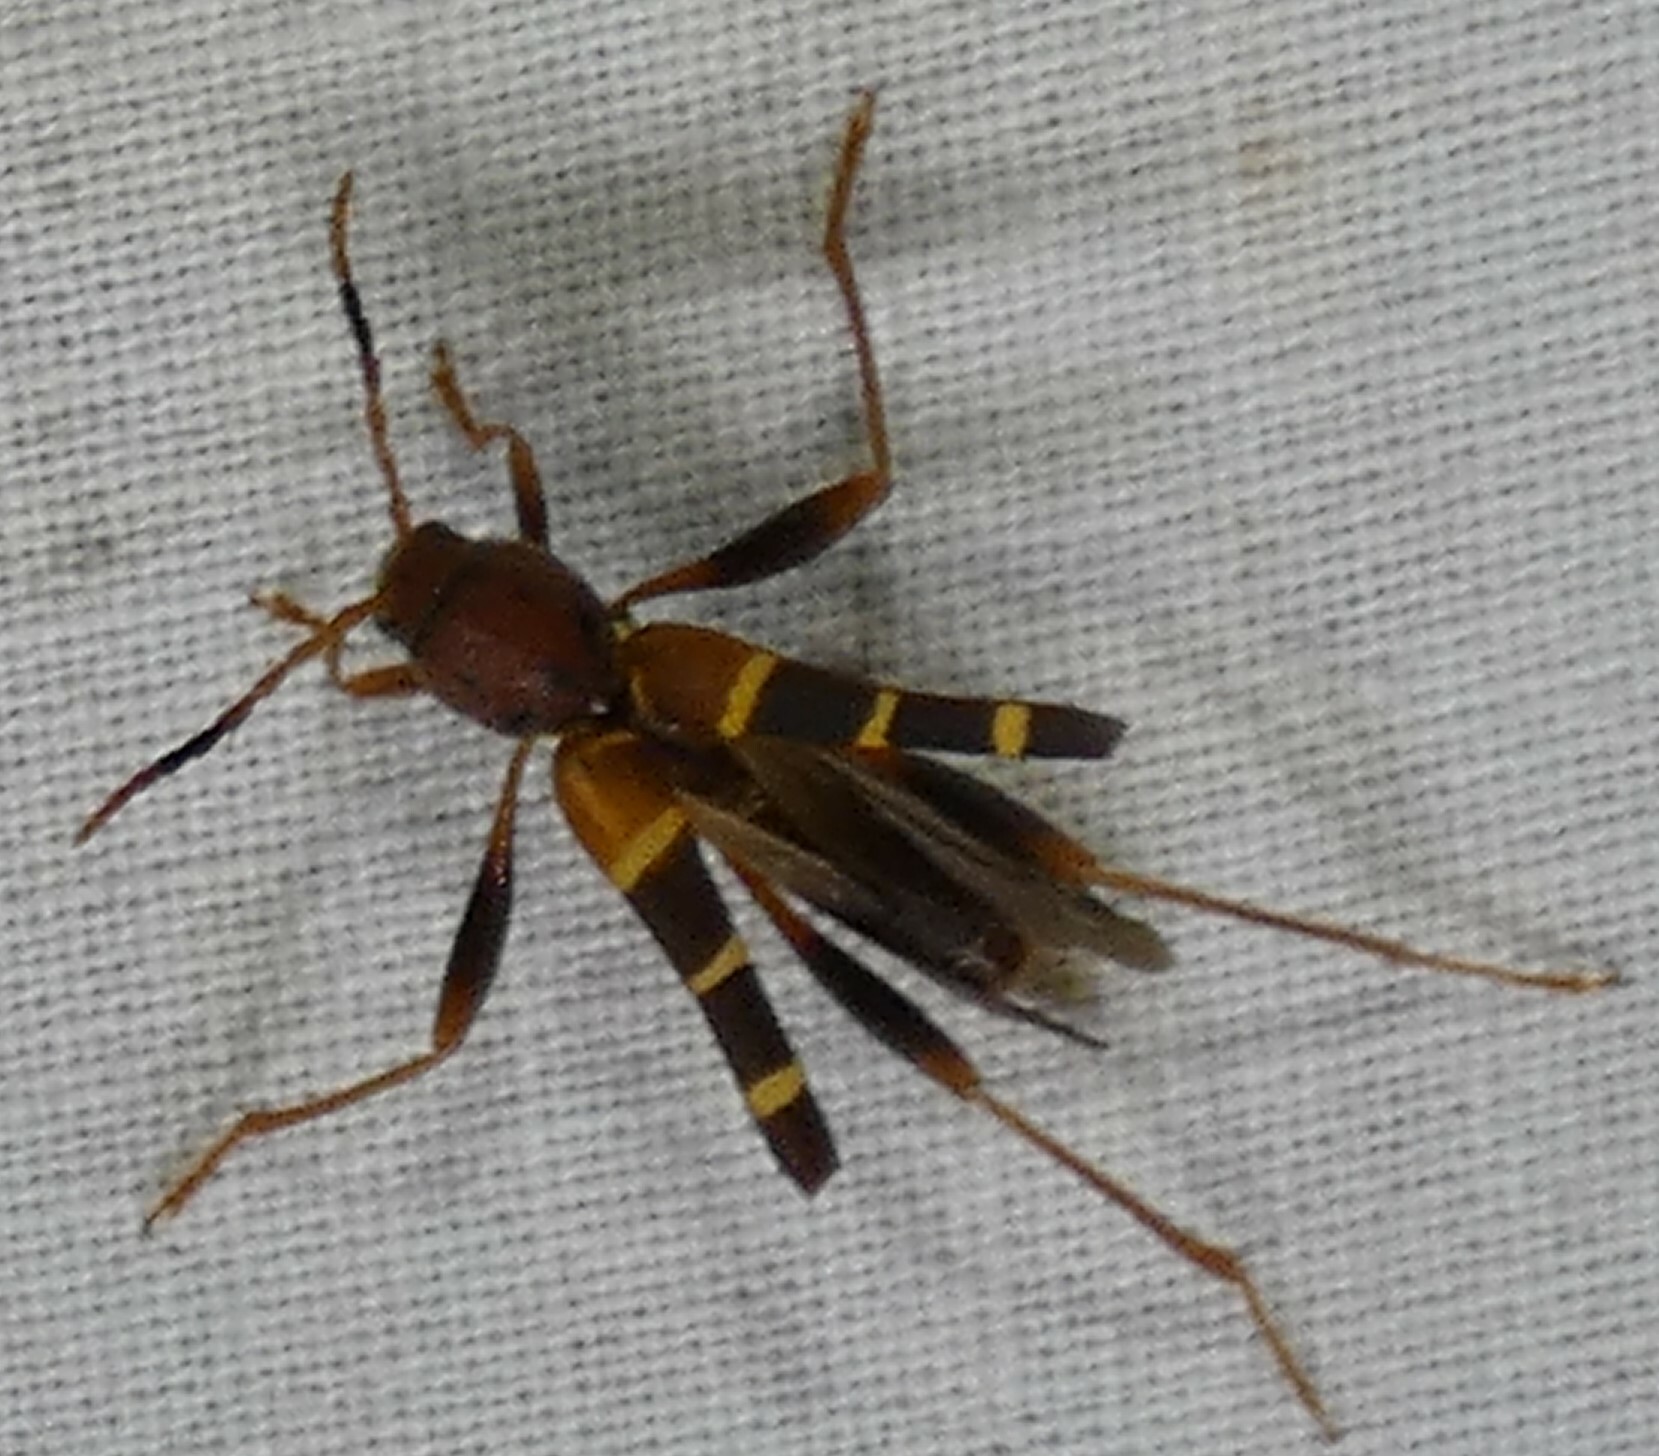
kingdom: Animalia
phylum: Arthropoda
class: Insecta
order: Coleoptera
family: Cerambycidae
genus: Neoclytus
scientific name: Neoclytus acuminatus
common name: Read-headed ash borer
